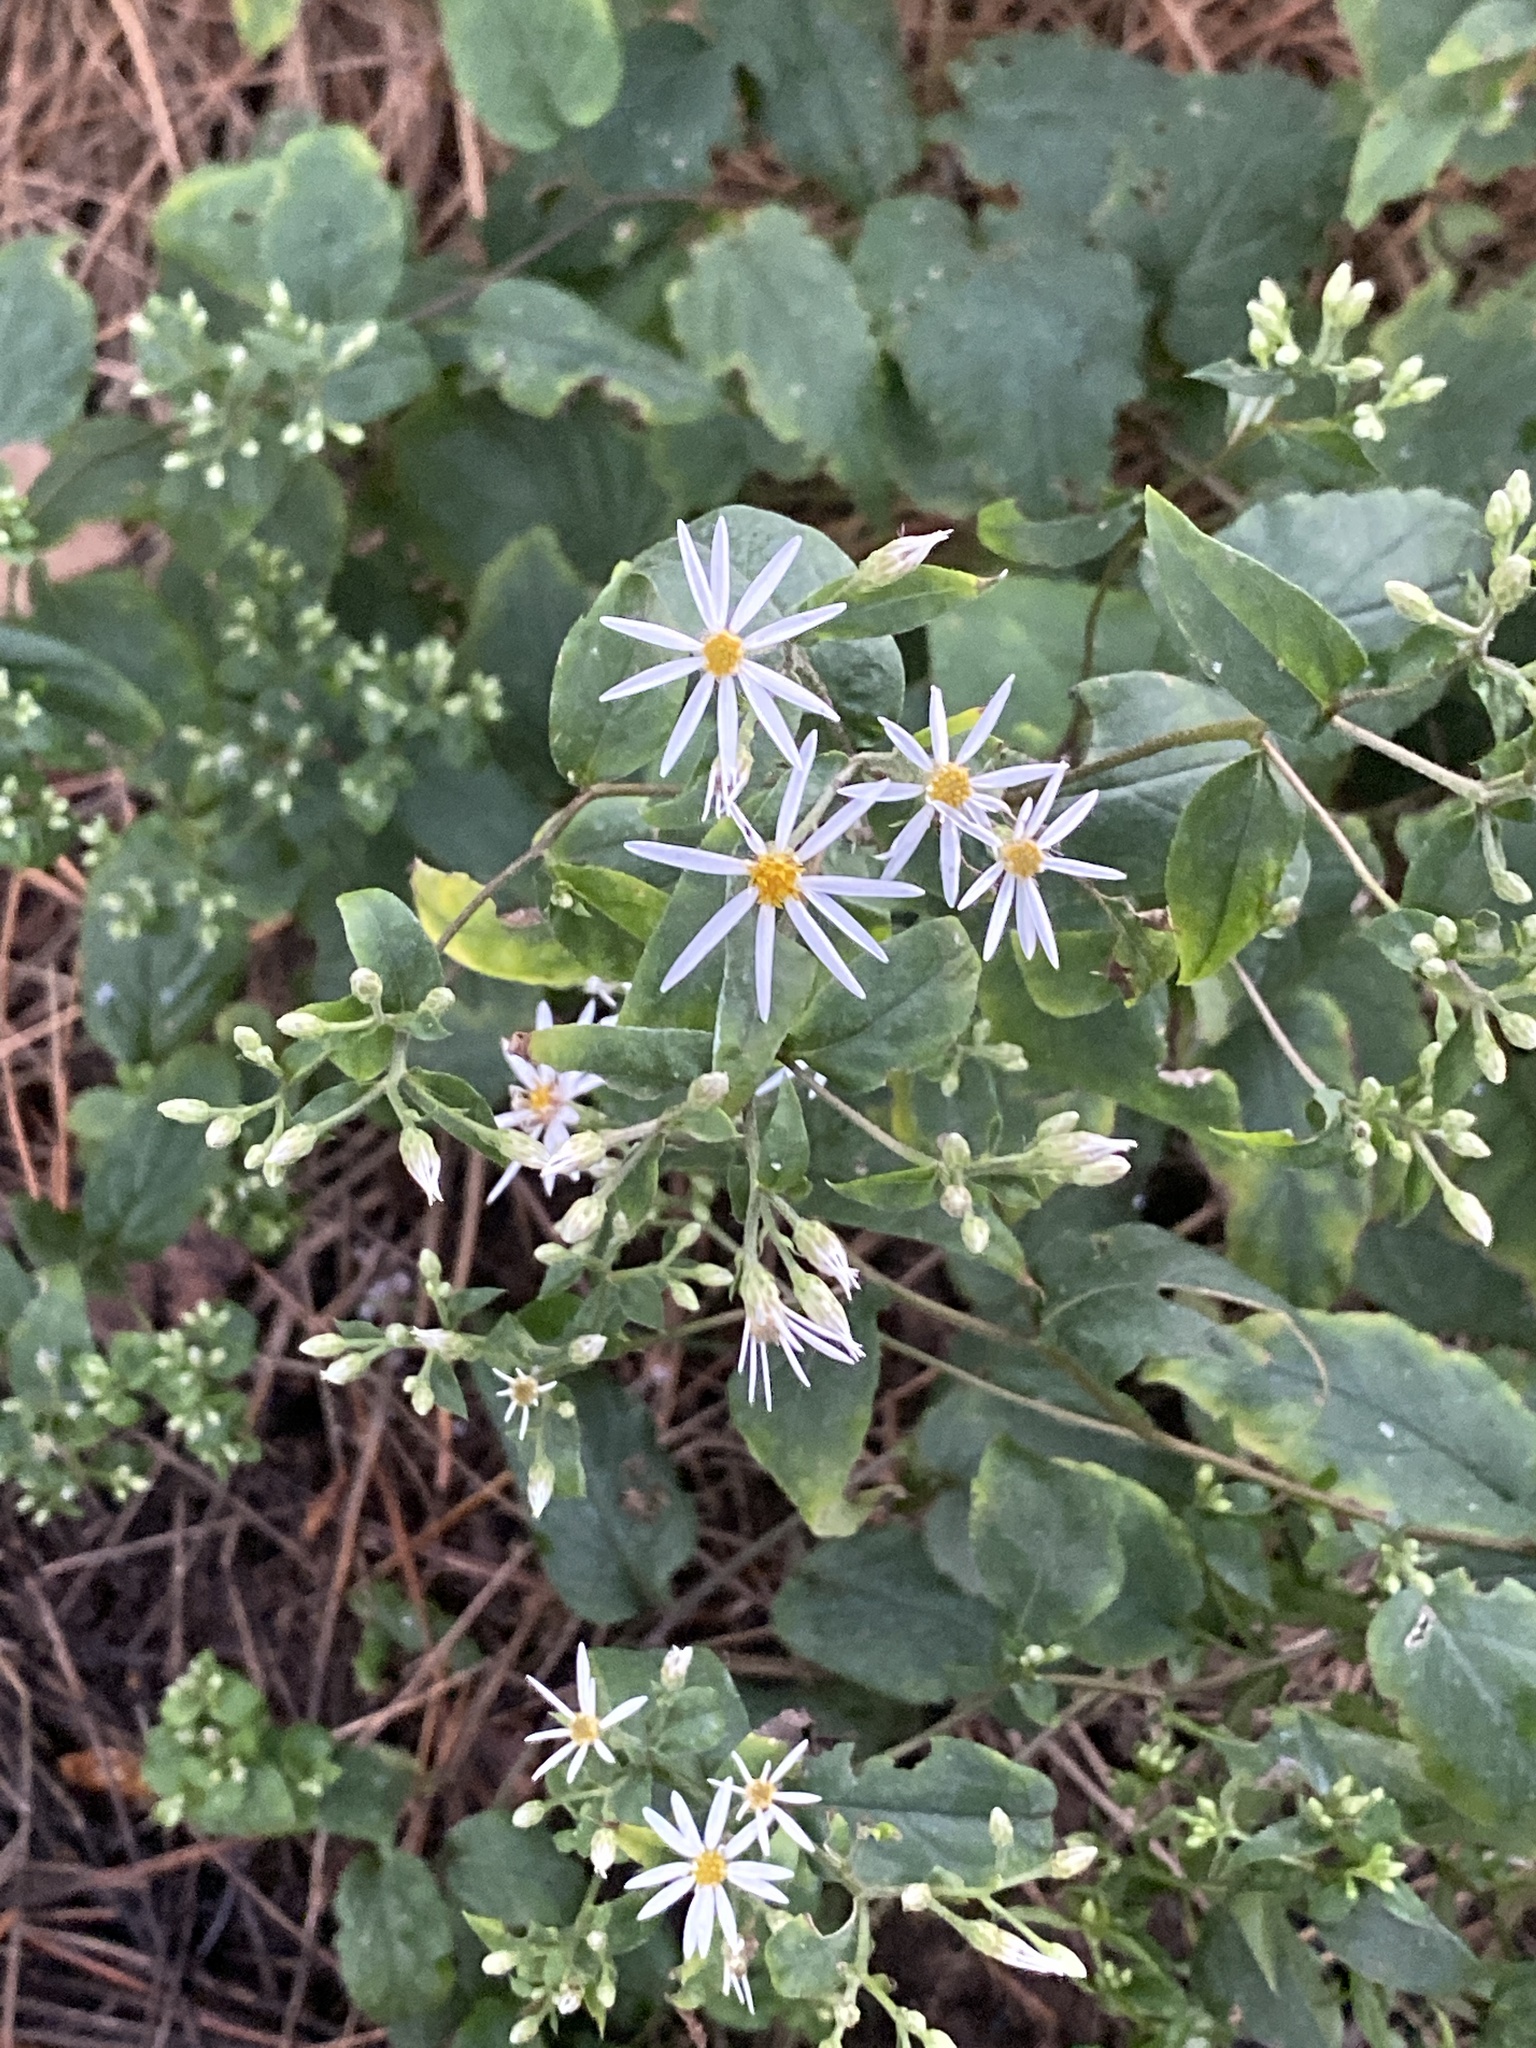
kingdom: Plantae
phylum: Tracheophyta
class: Magnoliopsida
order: Asterales
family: Asteraceae
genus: Eurybia
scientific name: Eurybia divaricata
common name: White wood aster
